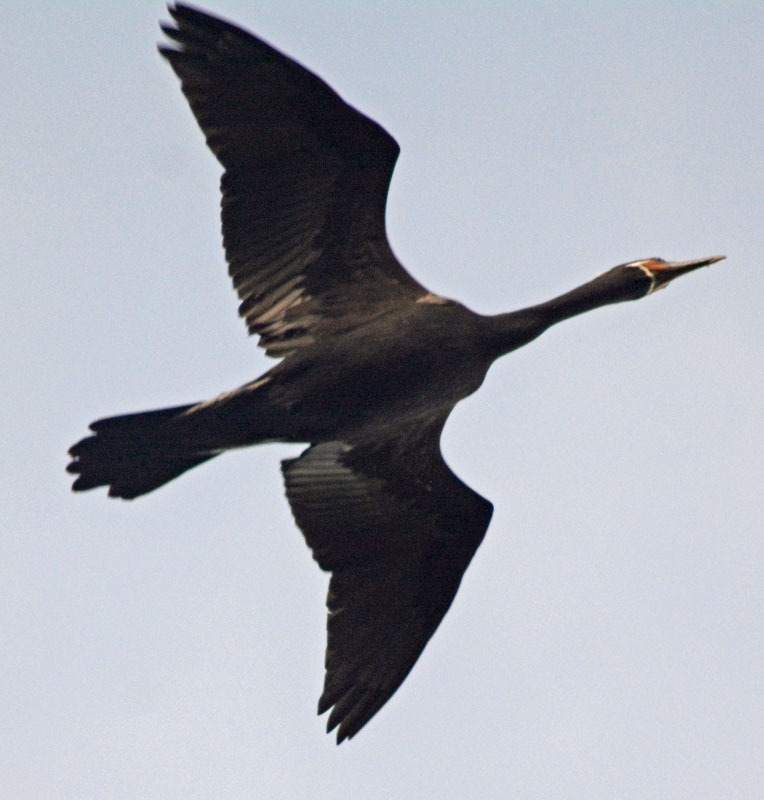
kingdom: Animalia
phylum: Chordata
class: Aves
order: Suliformes
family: Phalacrocoracidae
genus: Phalacrocorax
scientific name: Phalacrocorax brasilianus
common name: Neotropic cormorant
